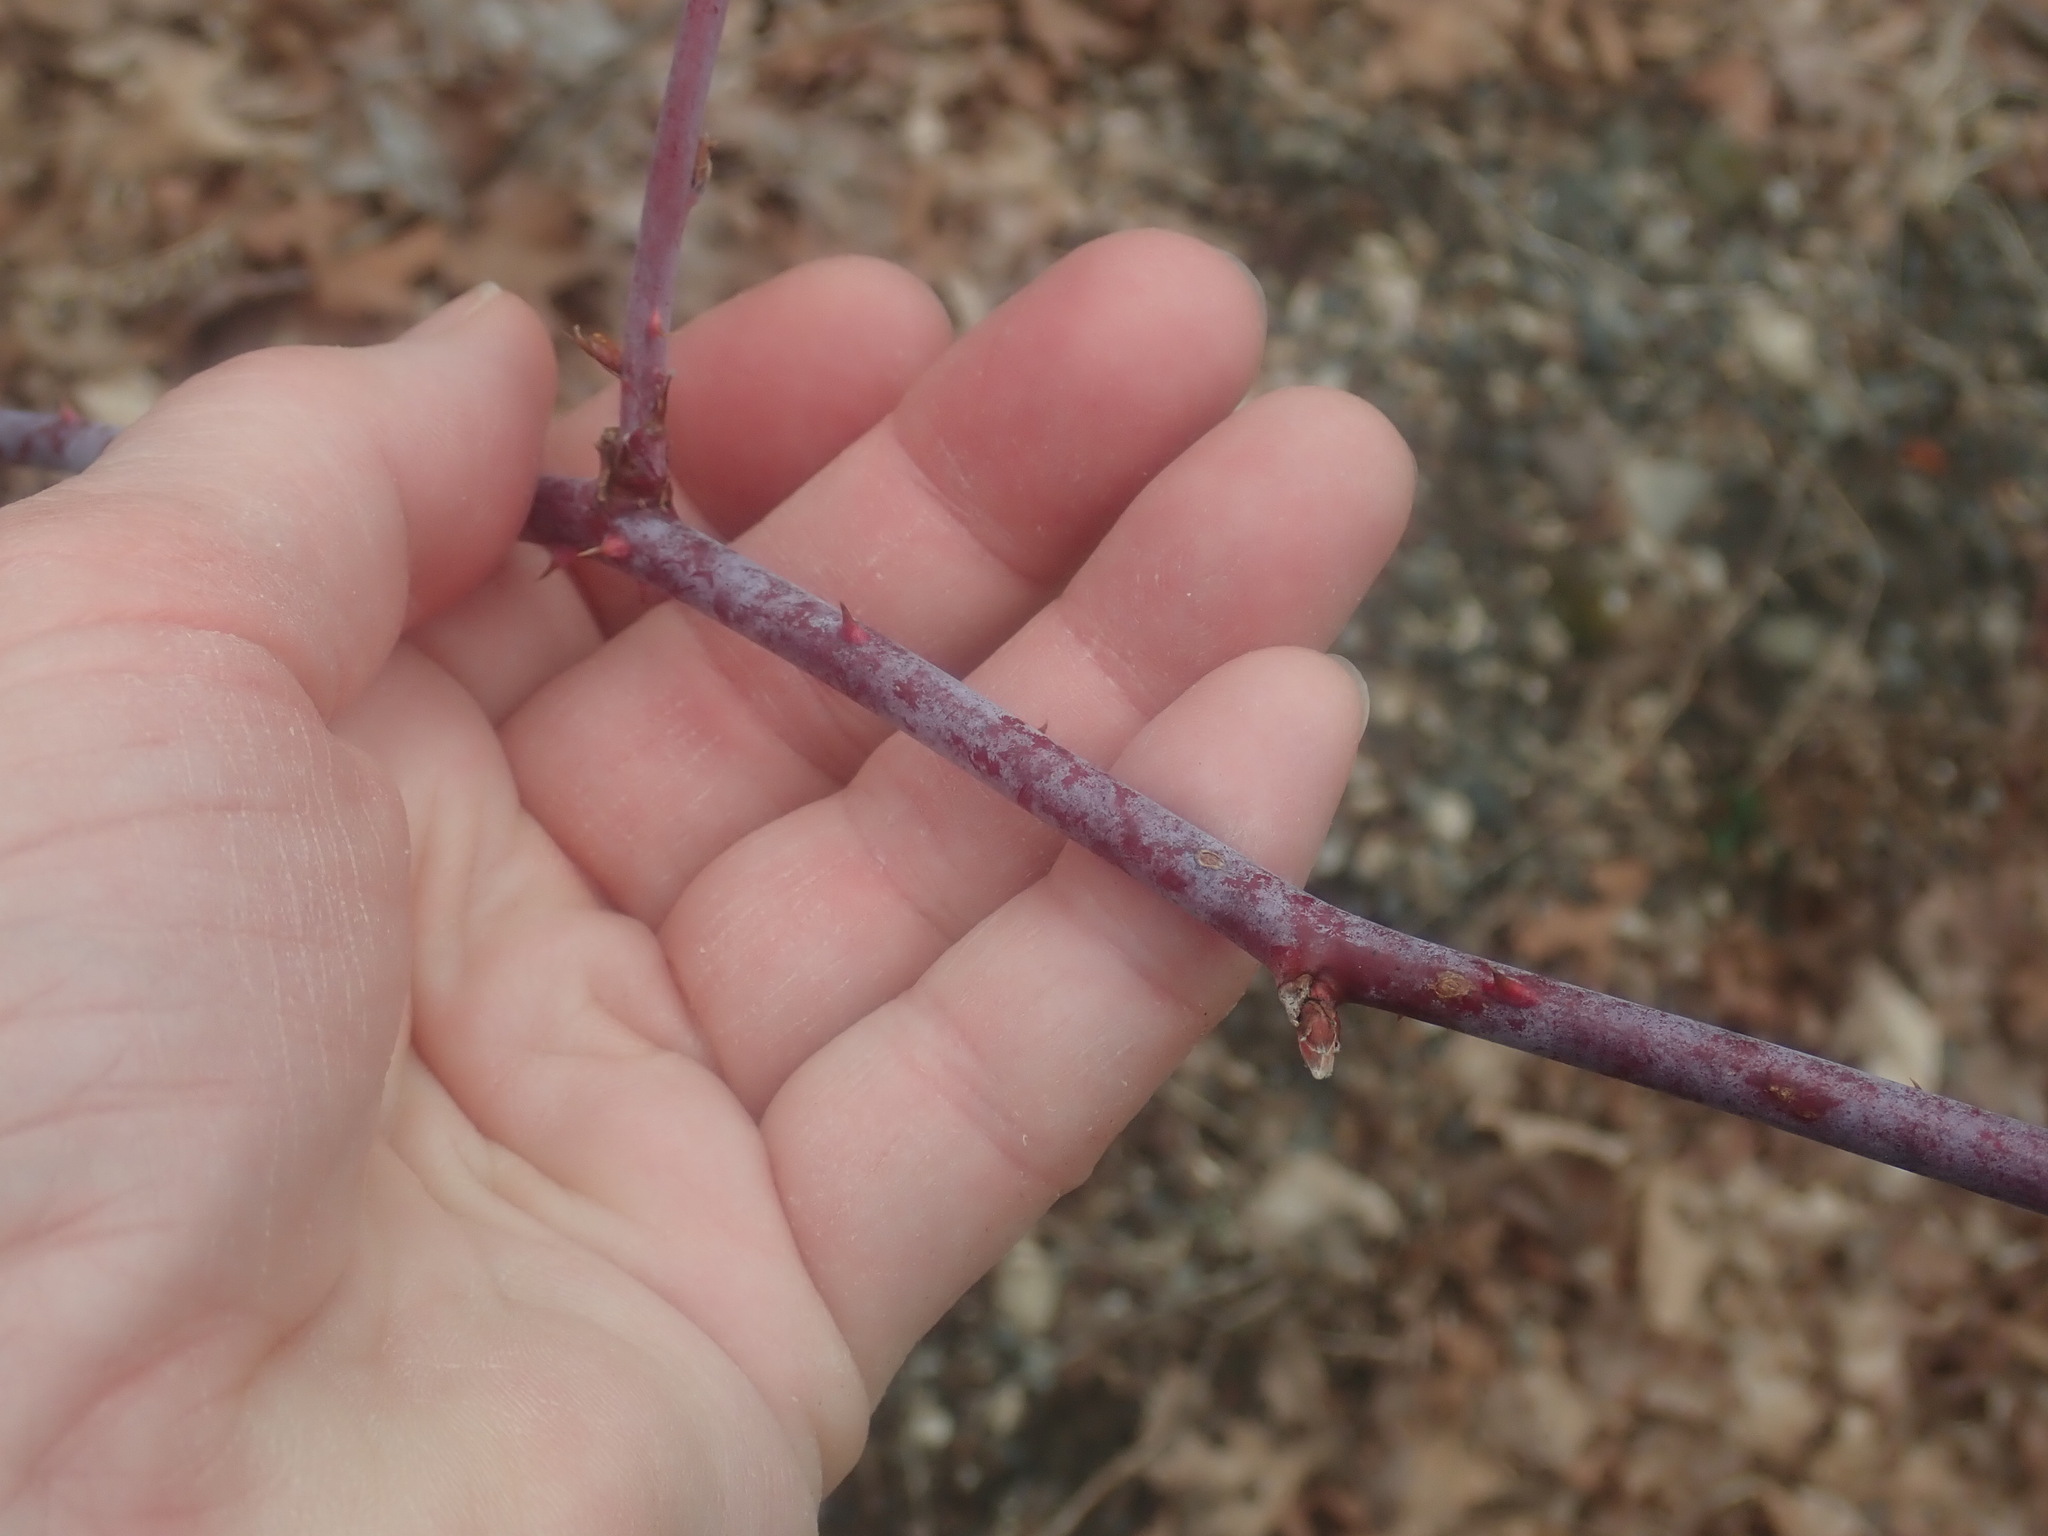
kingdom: Plantae
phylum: Tracheophyta
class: Magnoliopsida
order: Rosales
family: Rosaceae
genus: Rubus
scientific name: Rubus occidentalis
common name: Black raspberry
